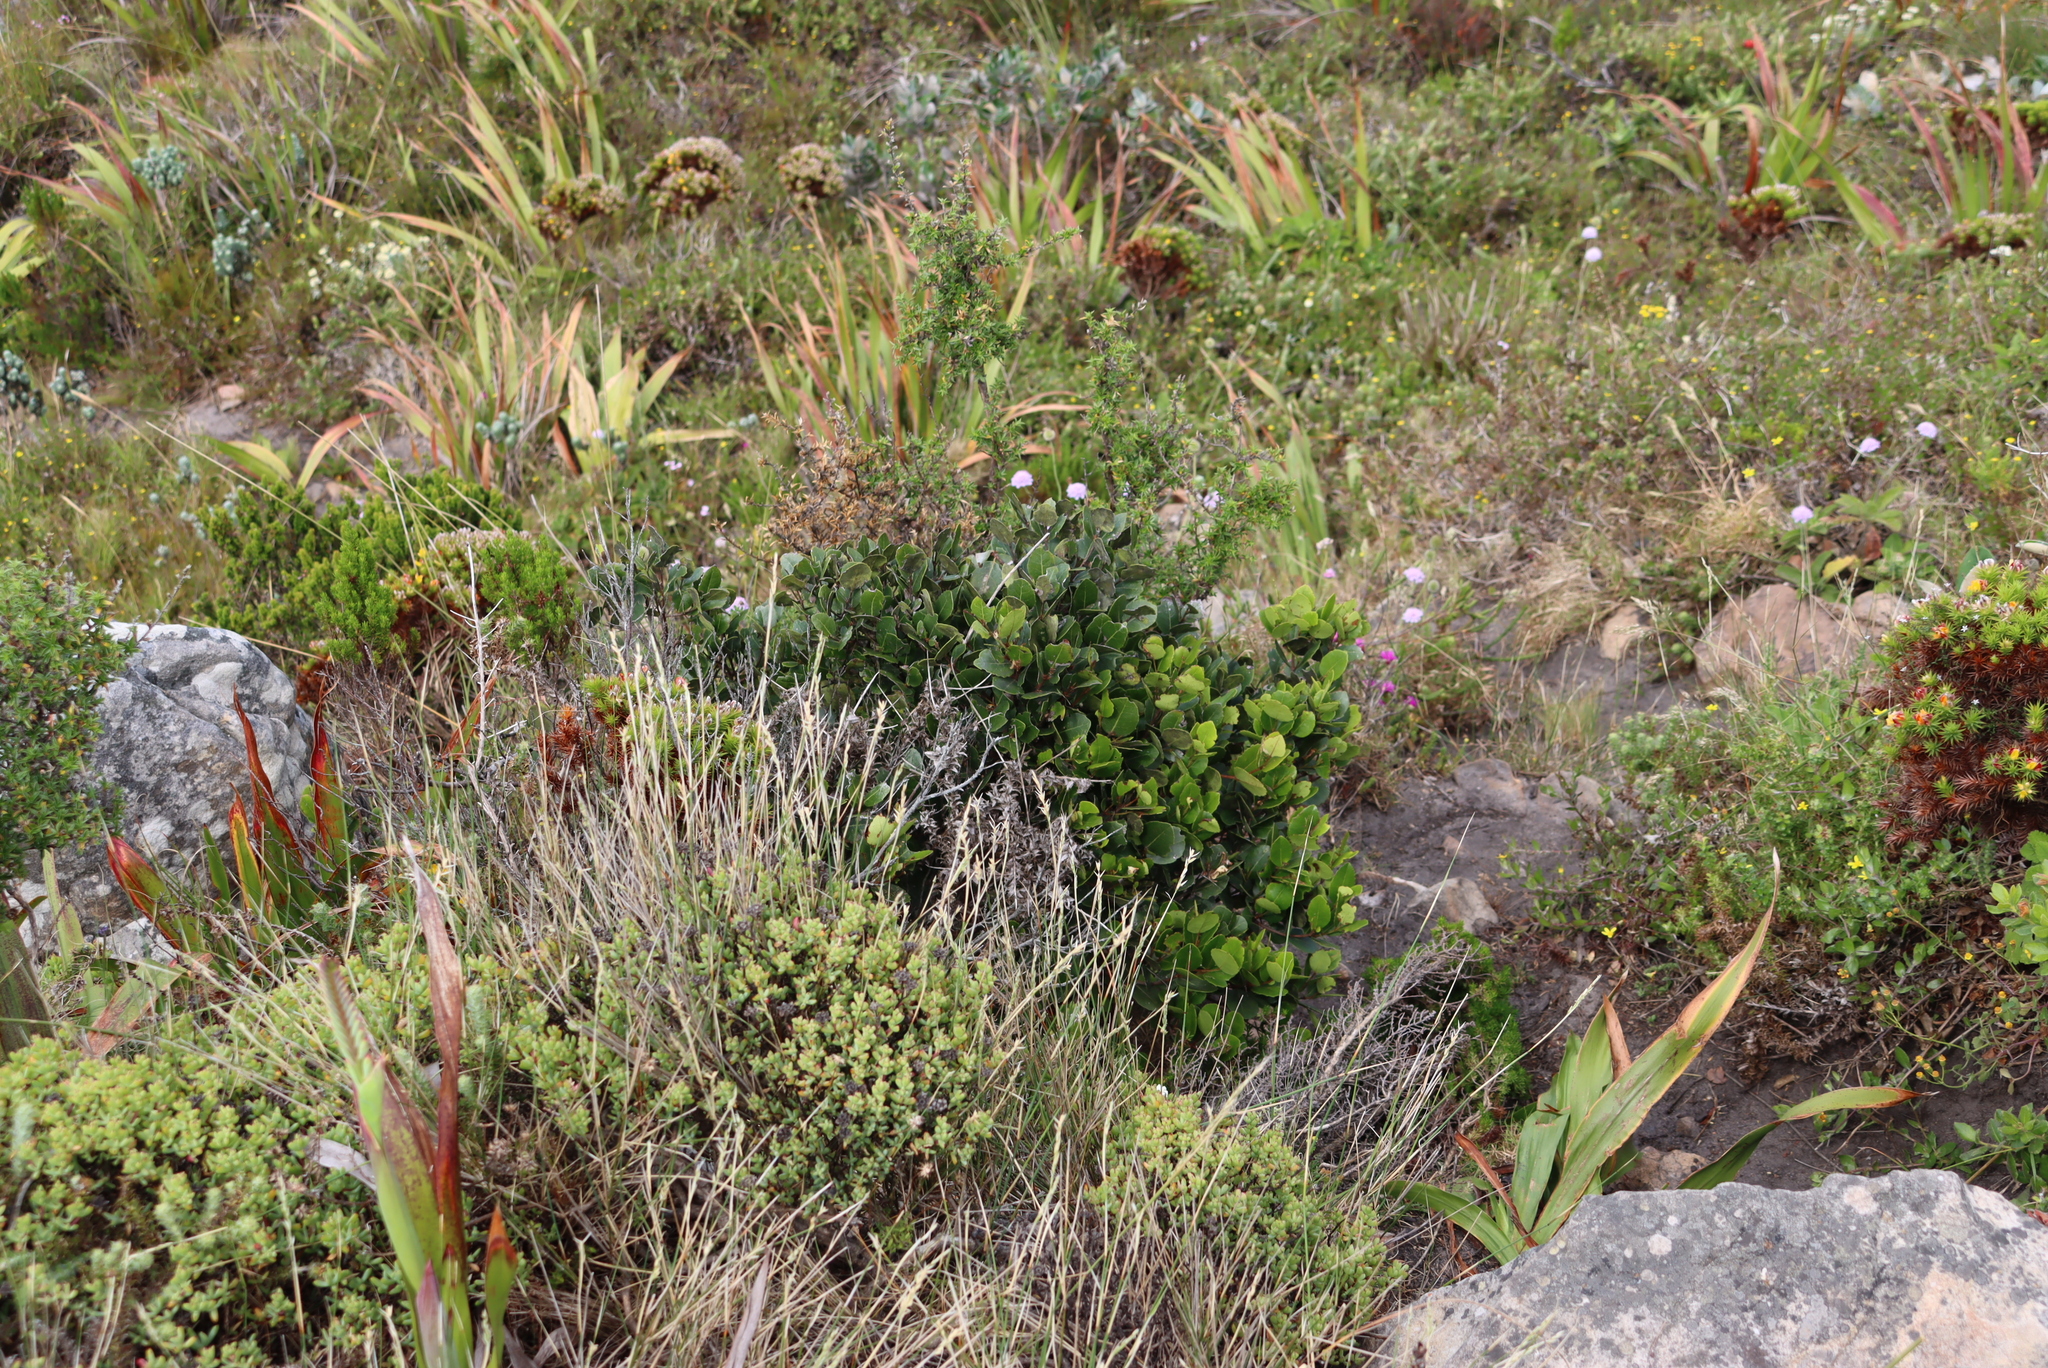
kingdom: Plantae
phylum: Tracheophyta
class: Magnoliopsida
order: Celastrales
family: Celastraceae
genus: Cassine
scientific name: Cassine peragua
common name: Cape saffron
